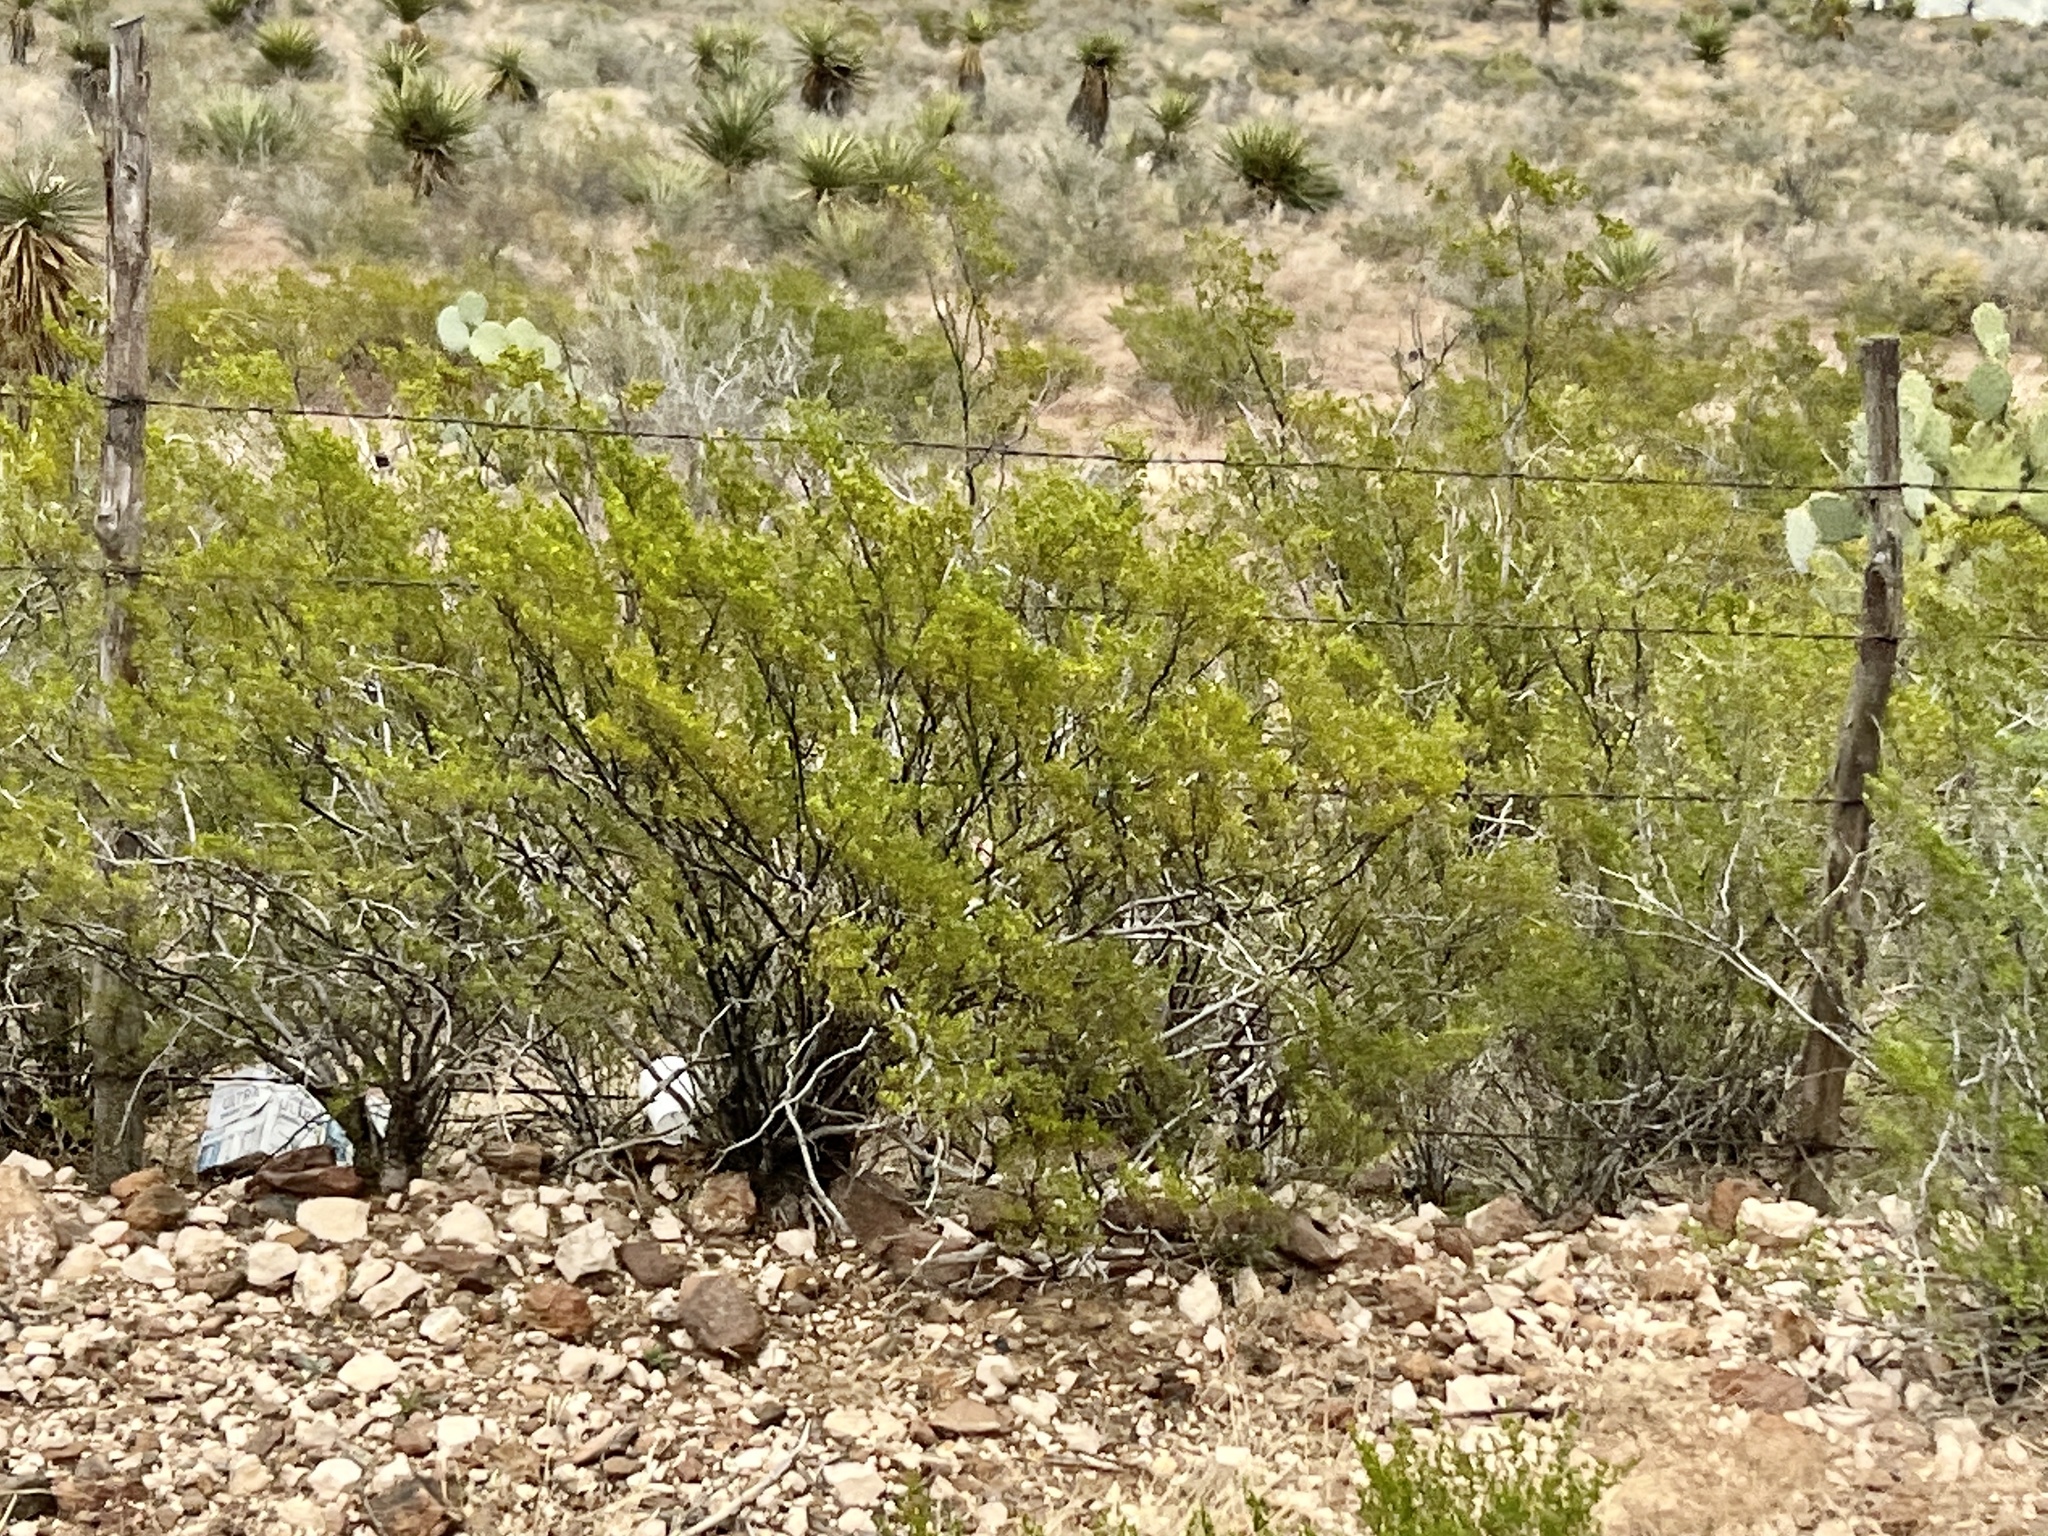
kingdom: Plantae
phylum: Tracheophyta
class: Magnoliopsida
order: Zygophyllales
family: Zygophyllaceae
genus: Larrea
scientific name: Larrea tridentata
